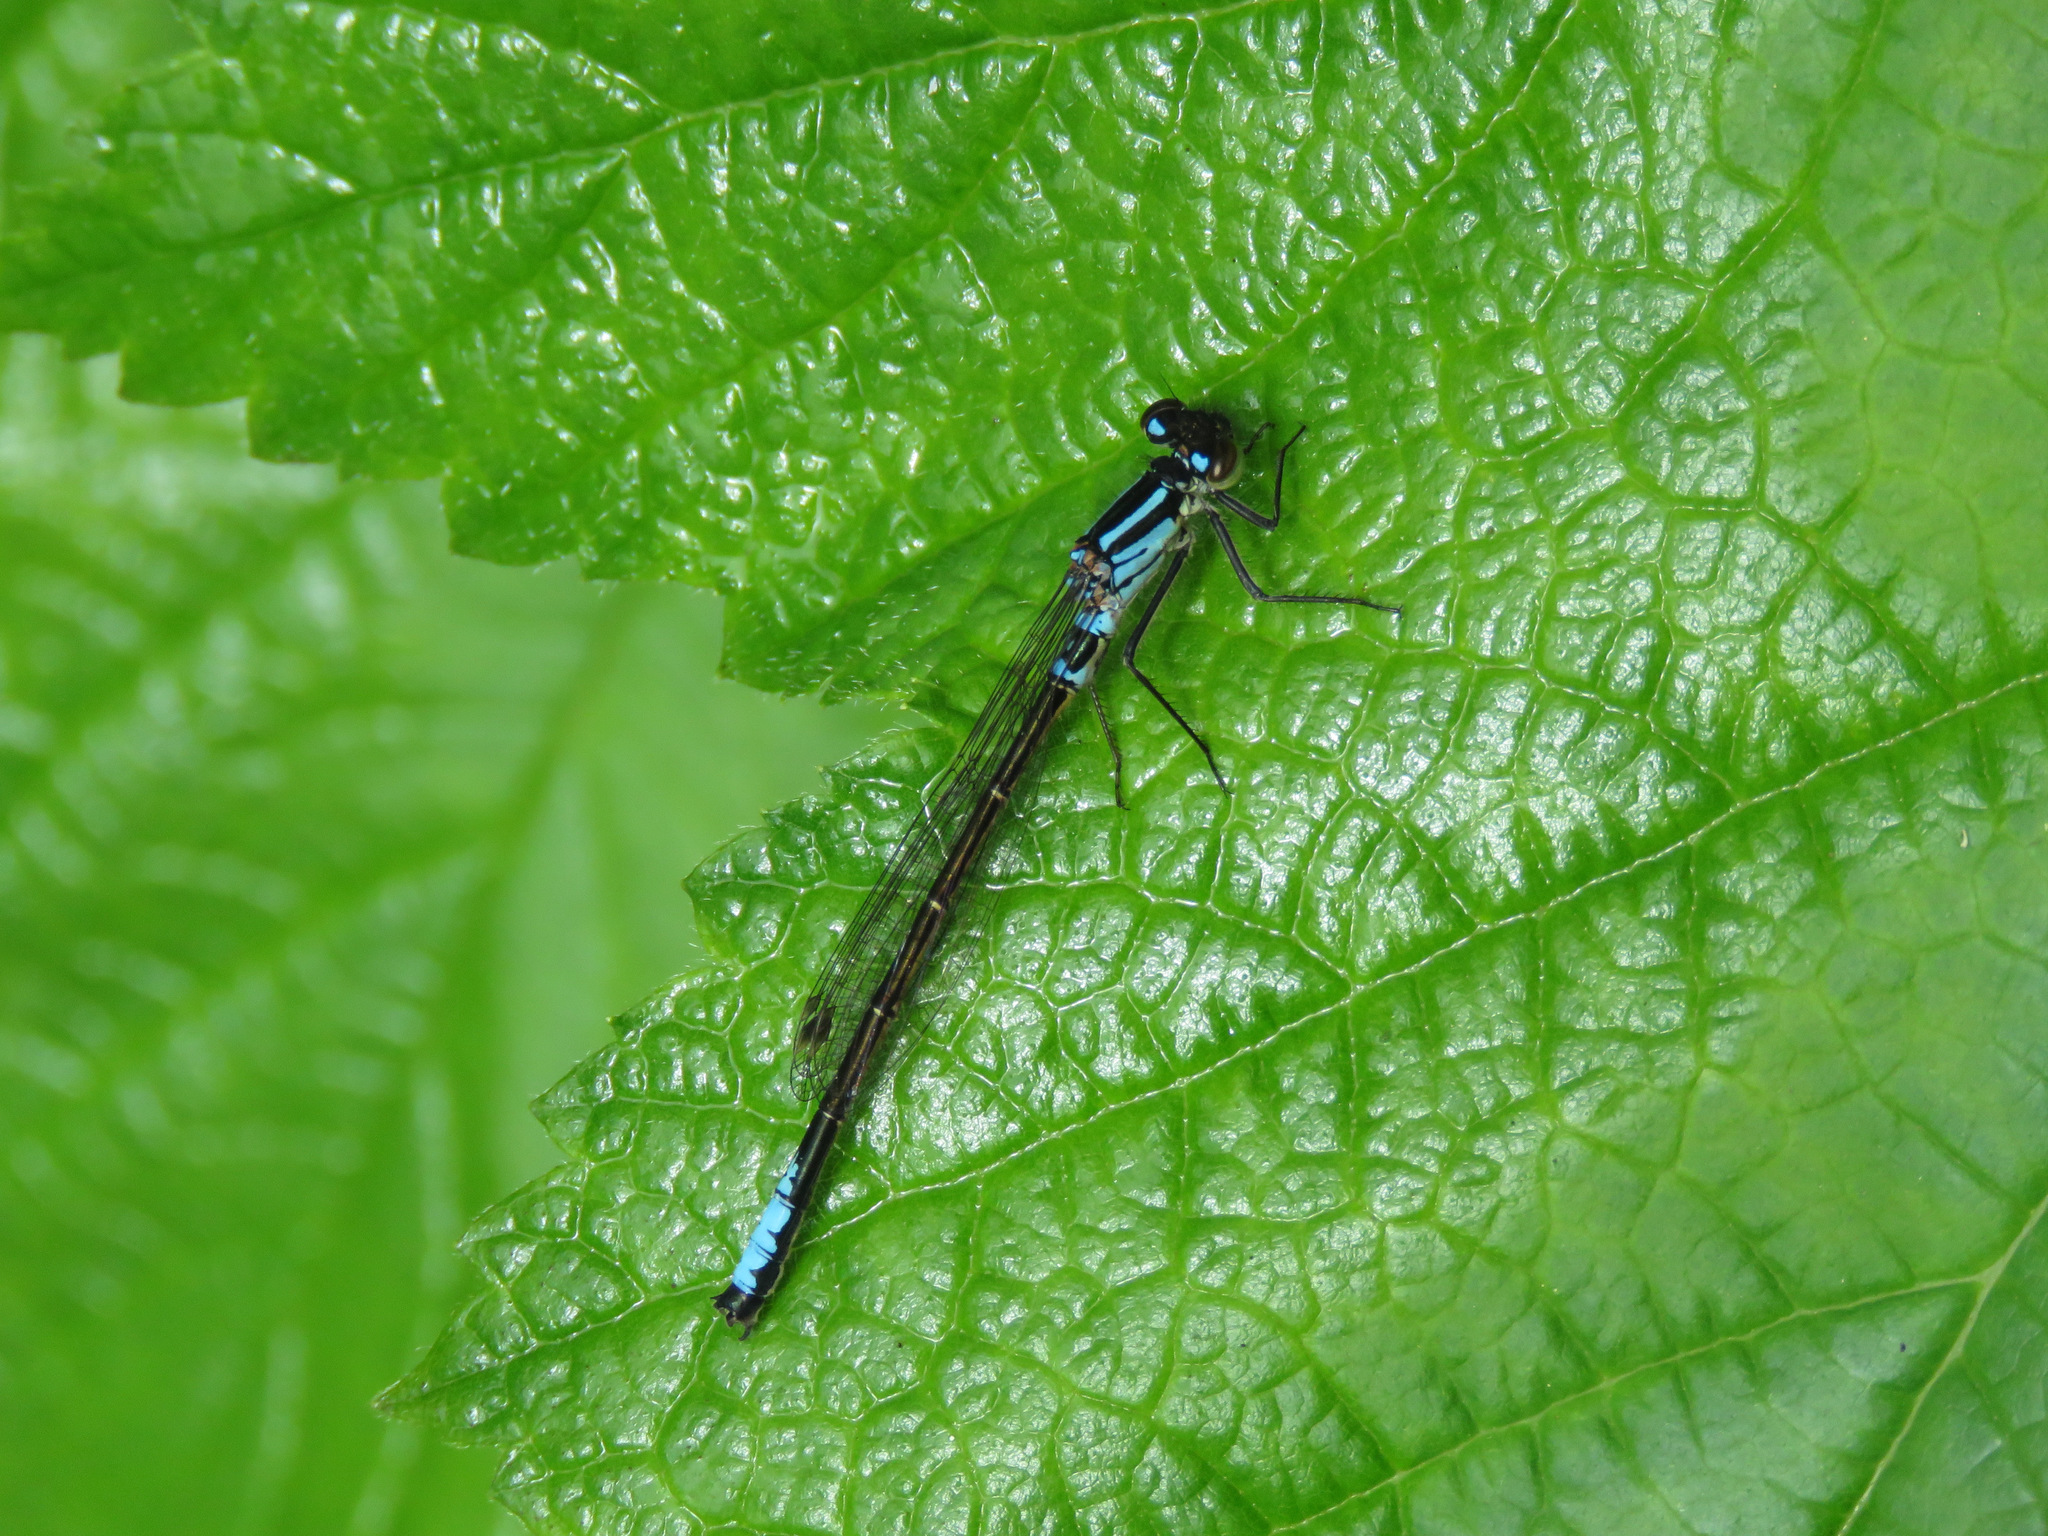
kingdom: Animalia
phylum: Arthropoda
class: Insecta
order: Odonata
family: Coenagrionidae
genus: Ischnura
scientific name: Ischnura erratica
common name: Swift forktail
